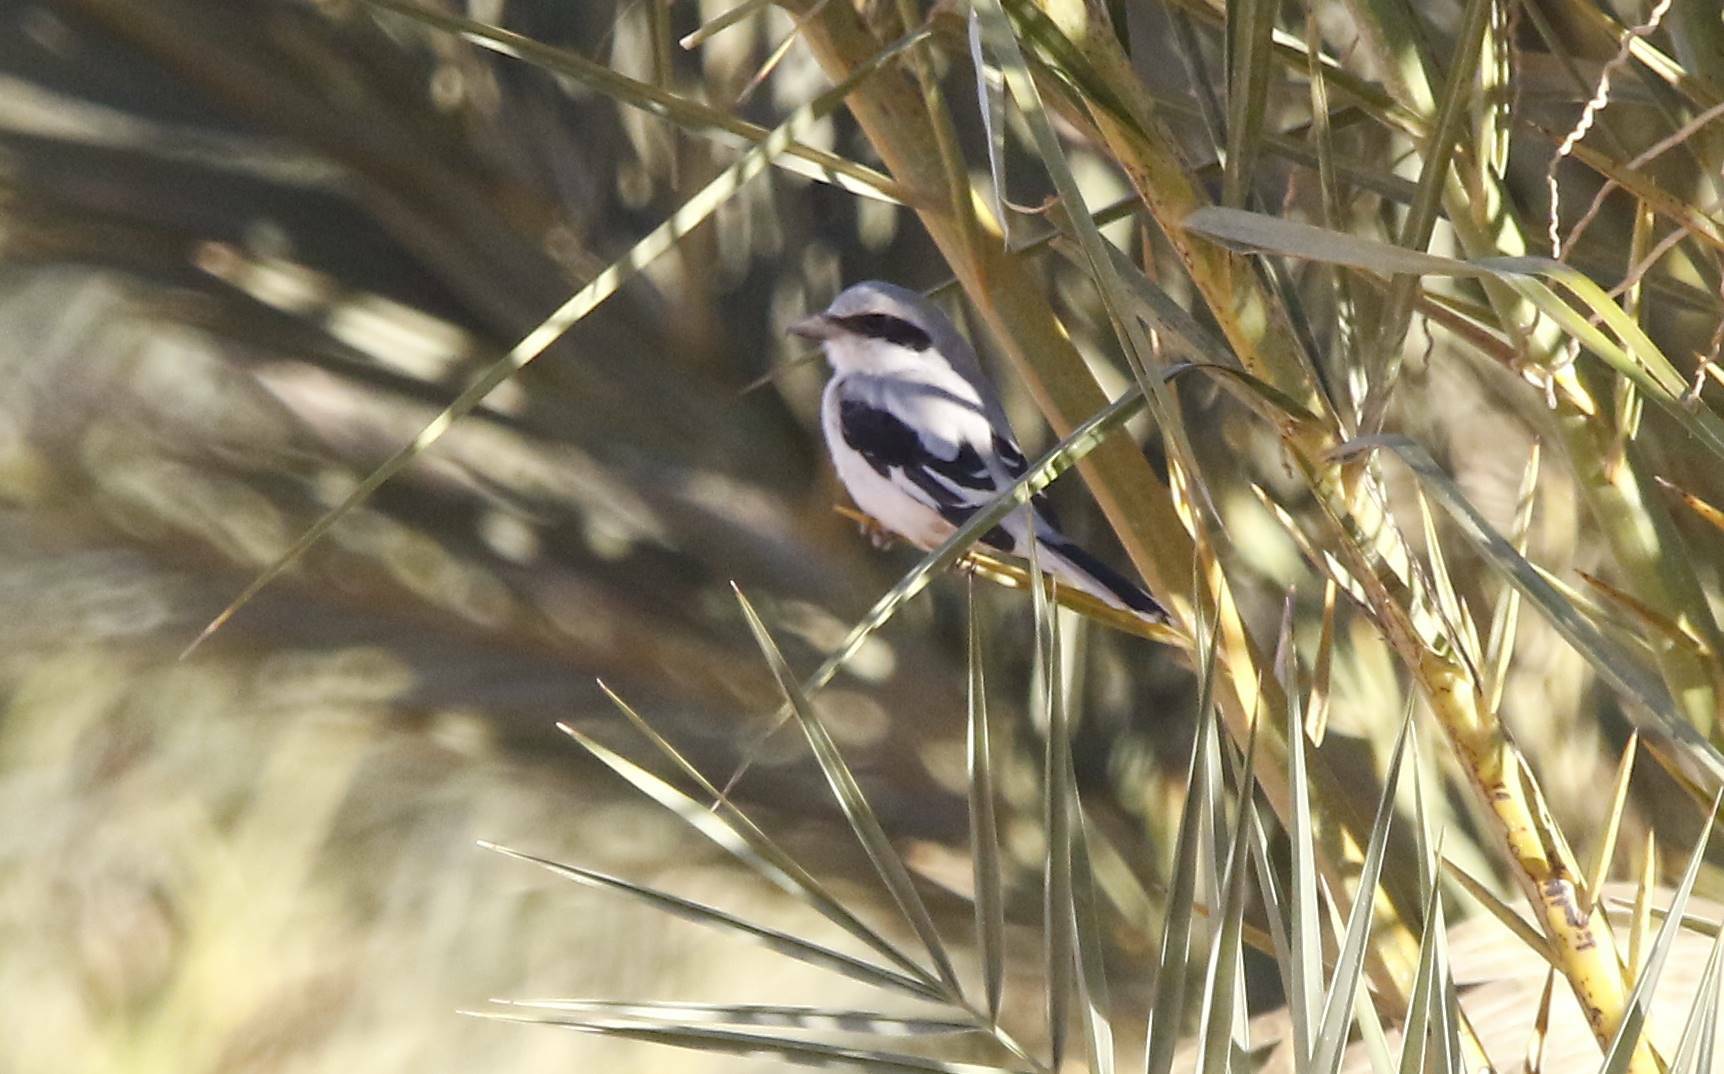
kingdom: Animalia
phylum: Chordata
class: Aves
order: Passeriformes
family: Laniidae
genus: Lanius
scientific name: Lanius excubitor
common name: Great grey shrike
